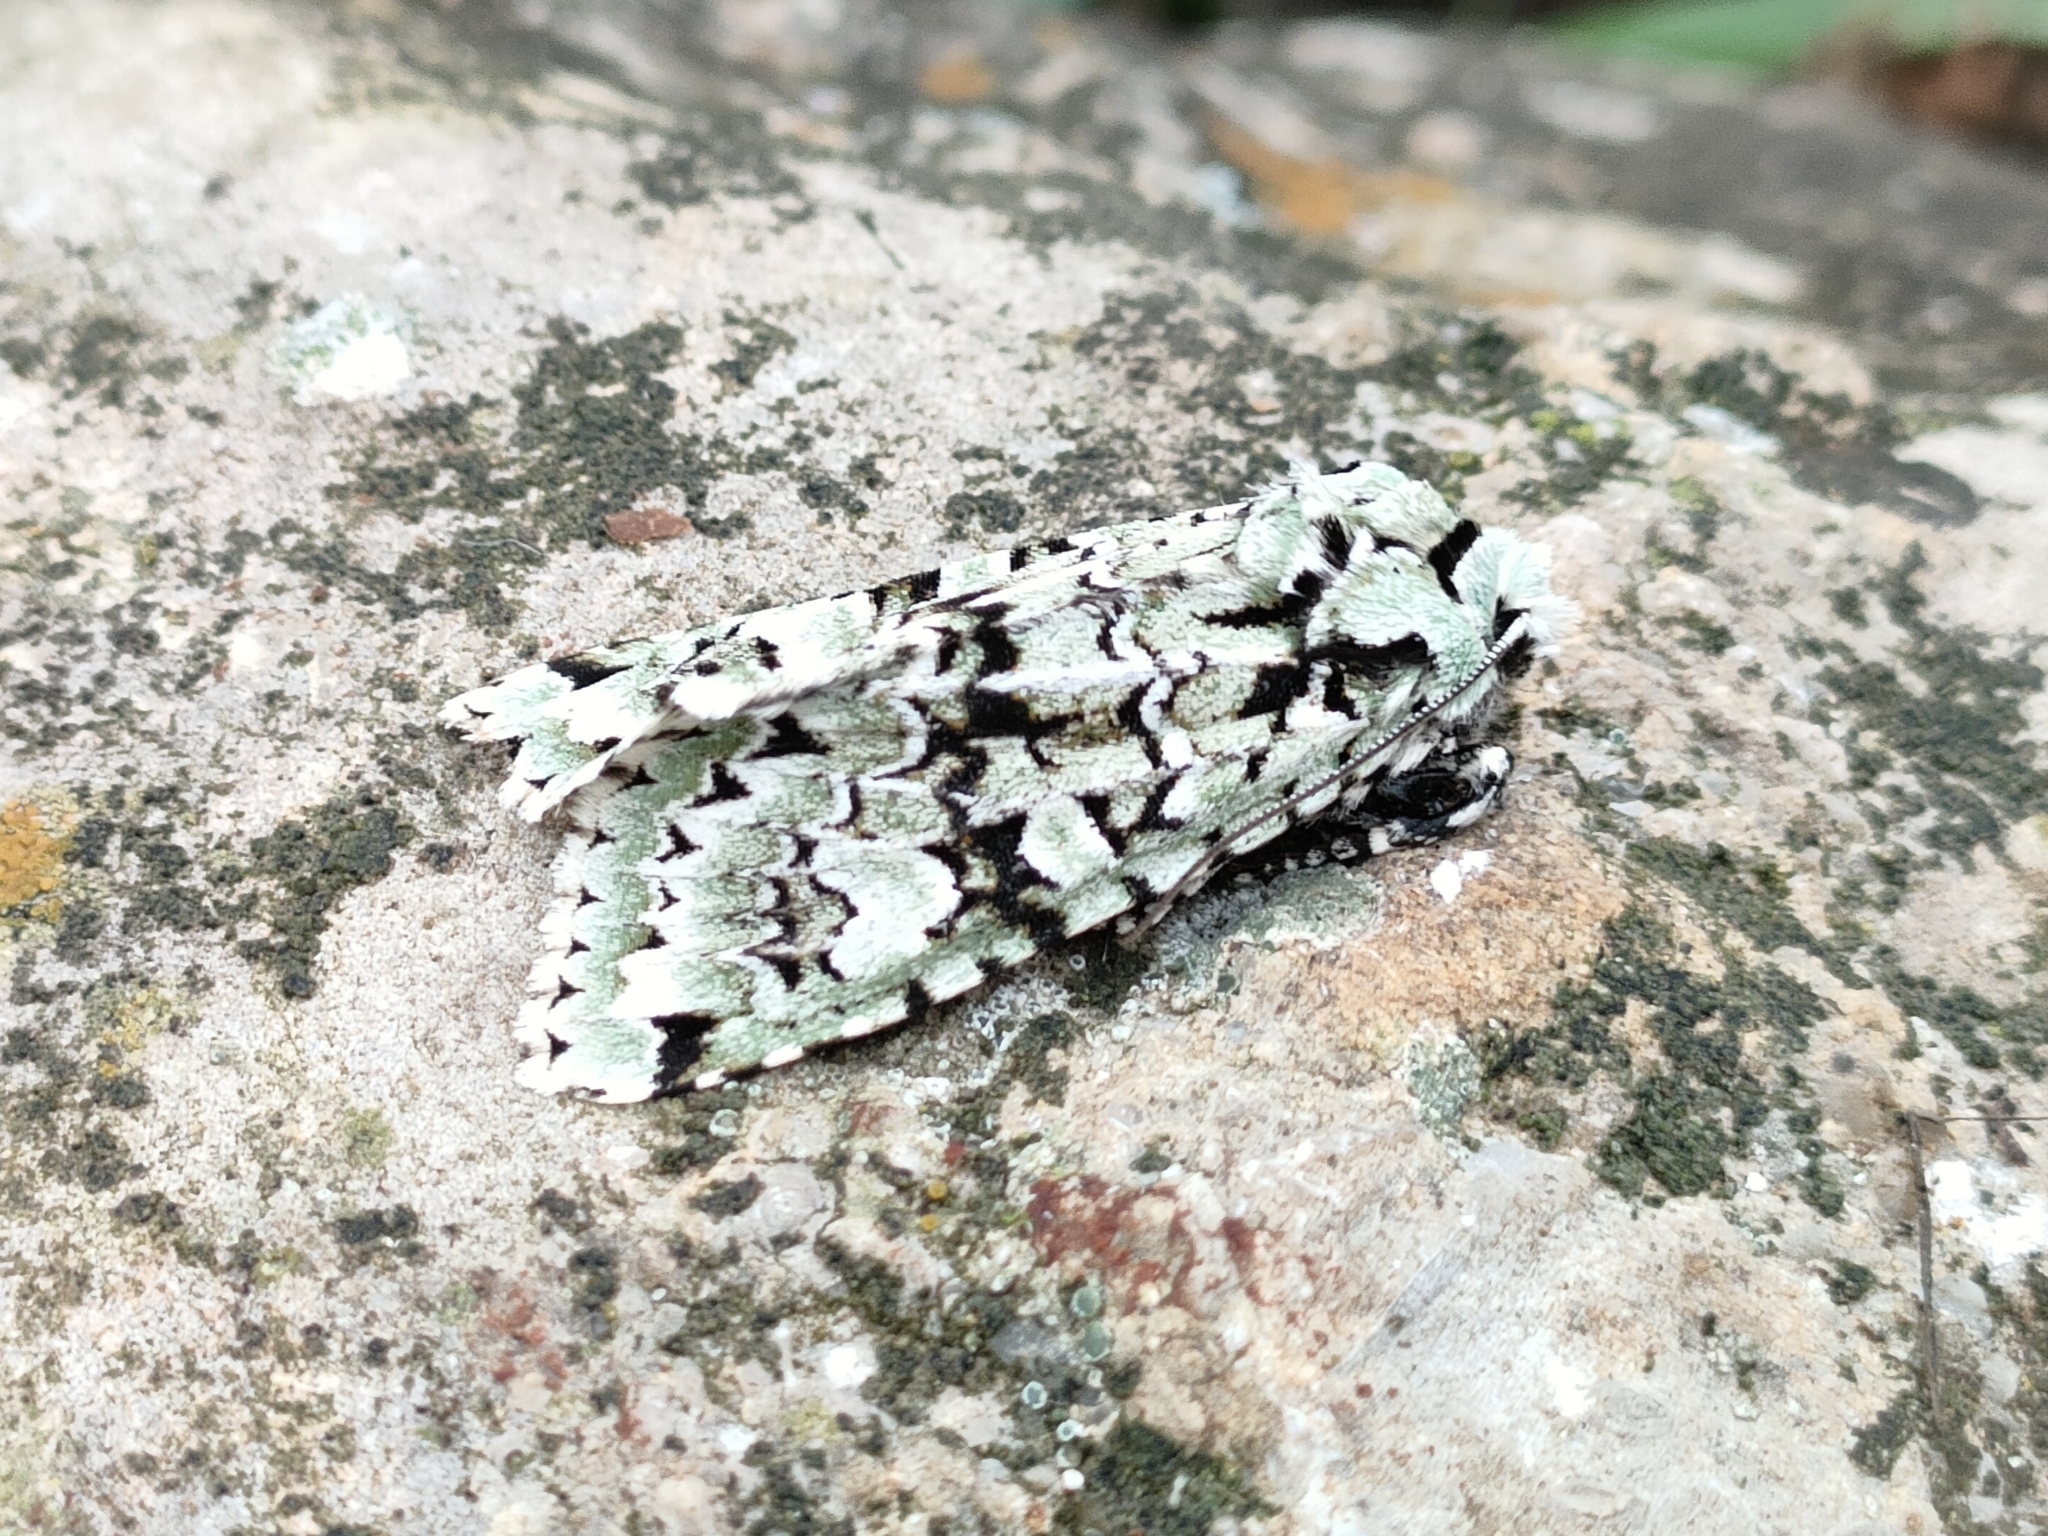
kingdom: Animalia
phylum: Arthropoda
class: Insecta
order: Lepidoptera
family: Noctuidae
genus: Griposia
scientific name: Griposia aprilina
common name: Merveille du jour
